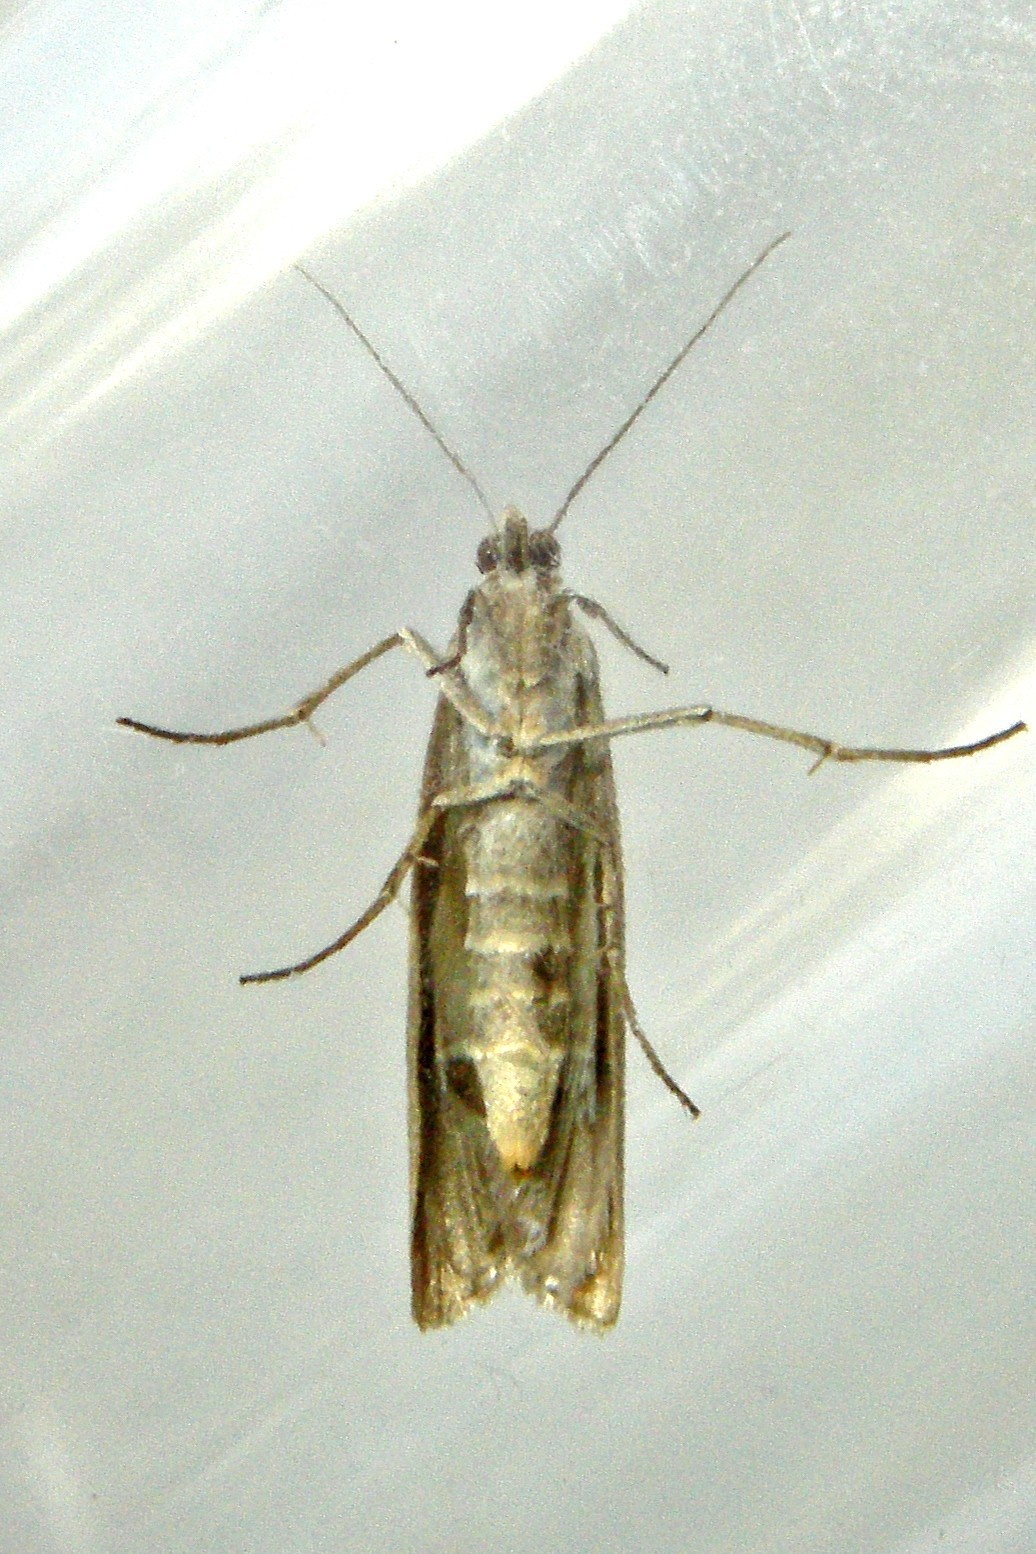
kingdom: Animalia
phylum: Arthropoda
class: Insecta
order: Lepidoptera
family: Pyralidae
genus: Homoeosoma
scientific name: Homoeosoma electella
